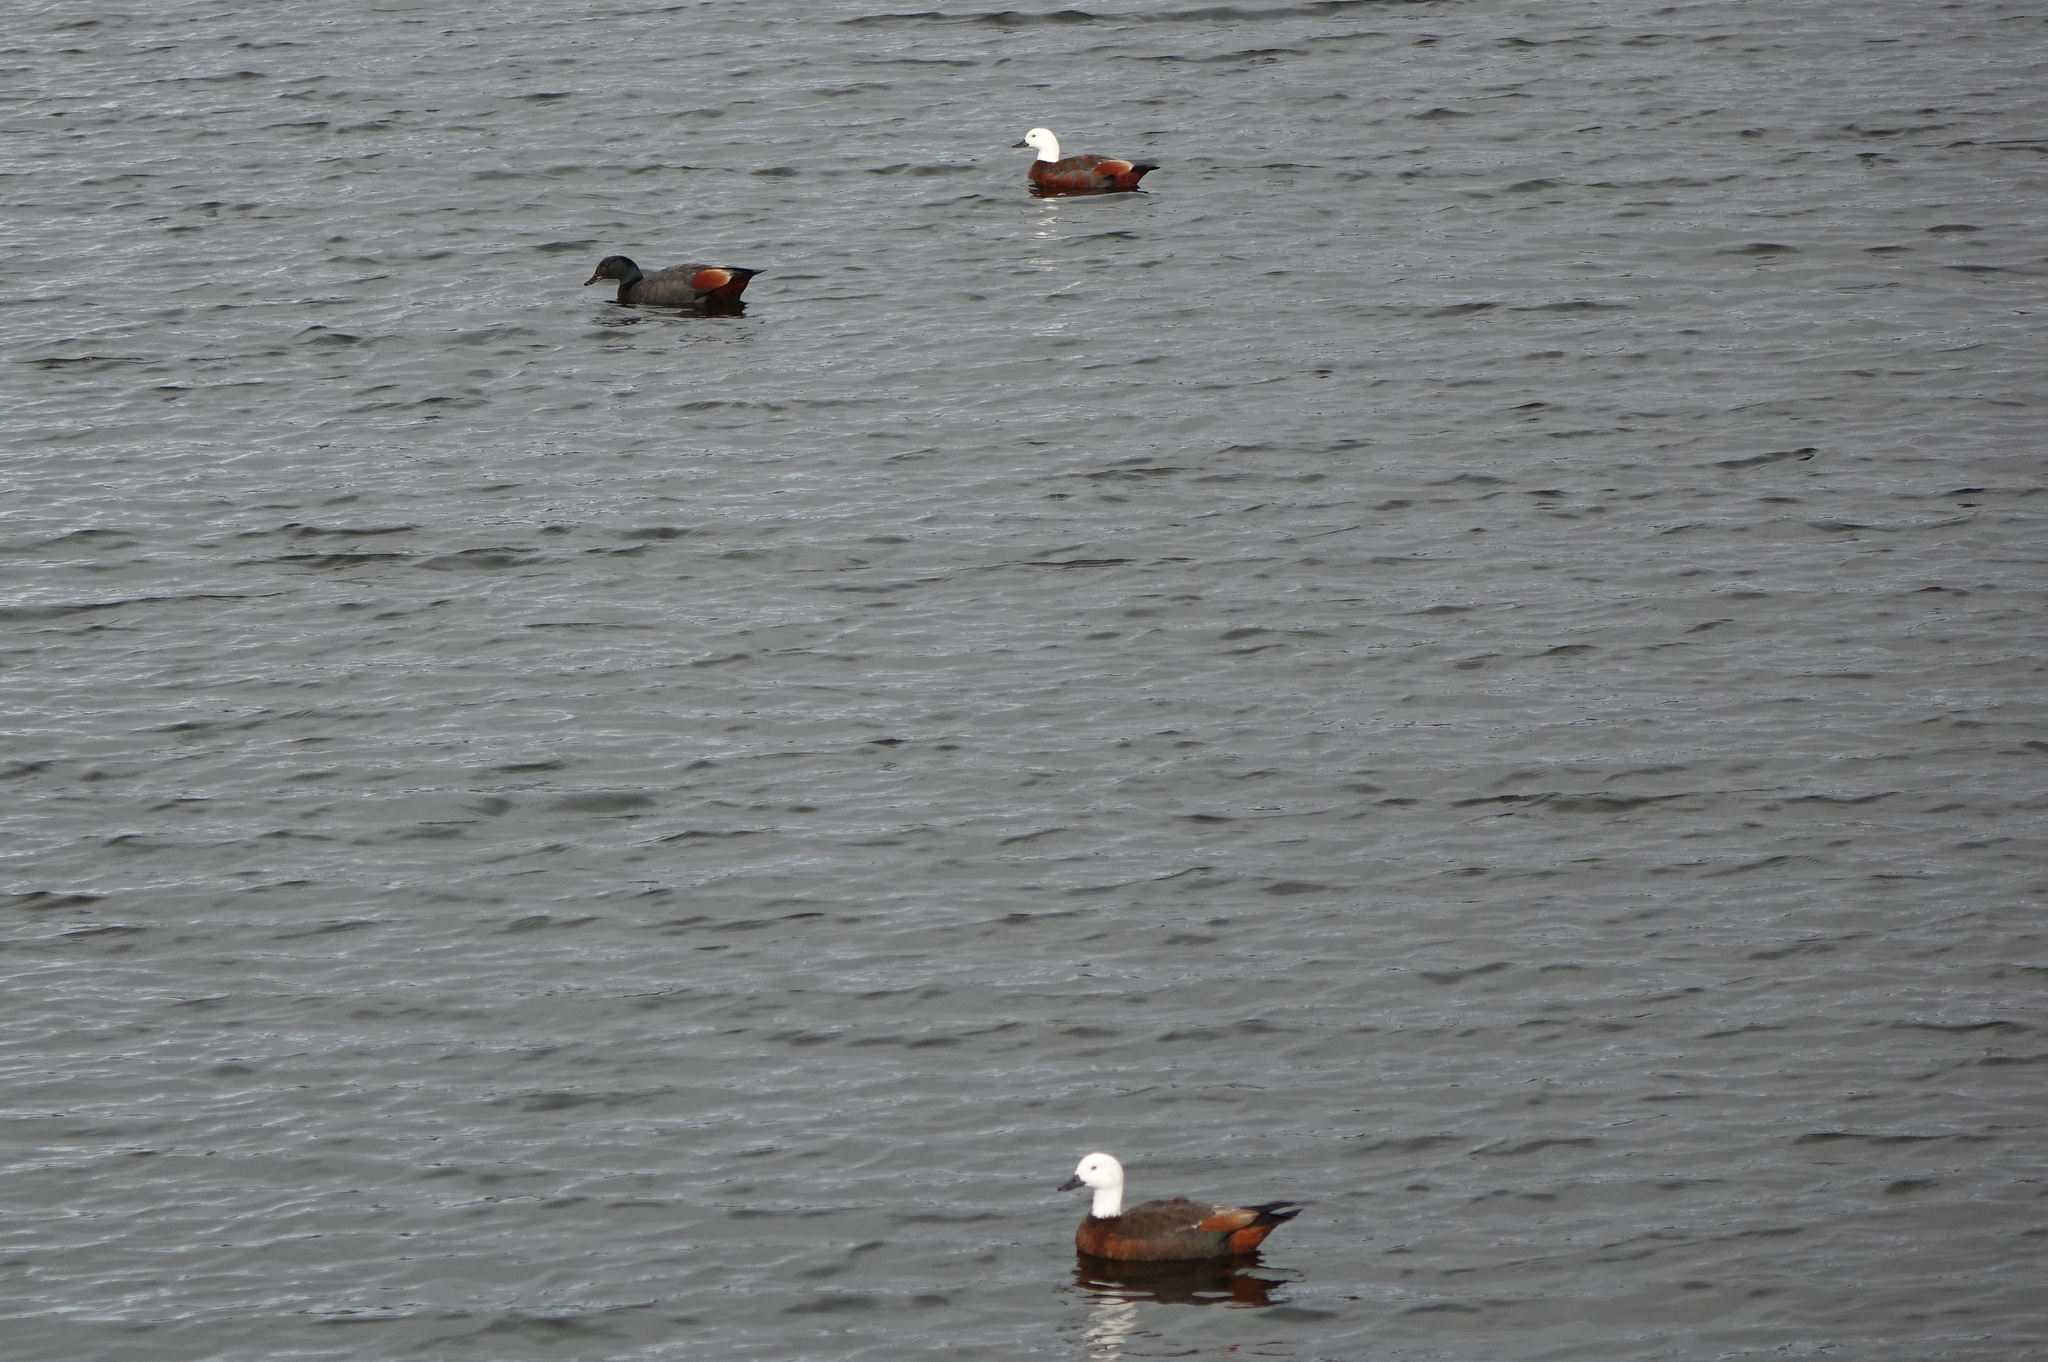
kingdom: Animalia
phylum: Chordata
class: Aves
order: Anseriformes
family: Anatidae
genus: Tadorna
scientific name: Tadorna variegata
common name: Paradise shelduck
